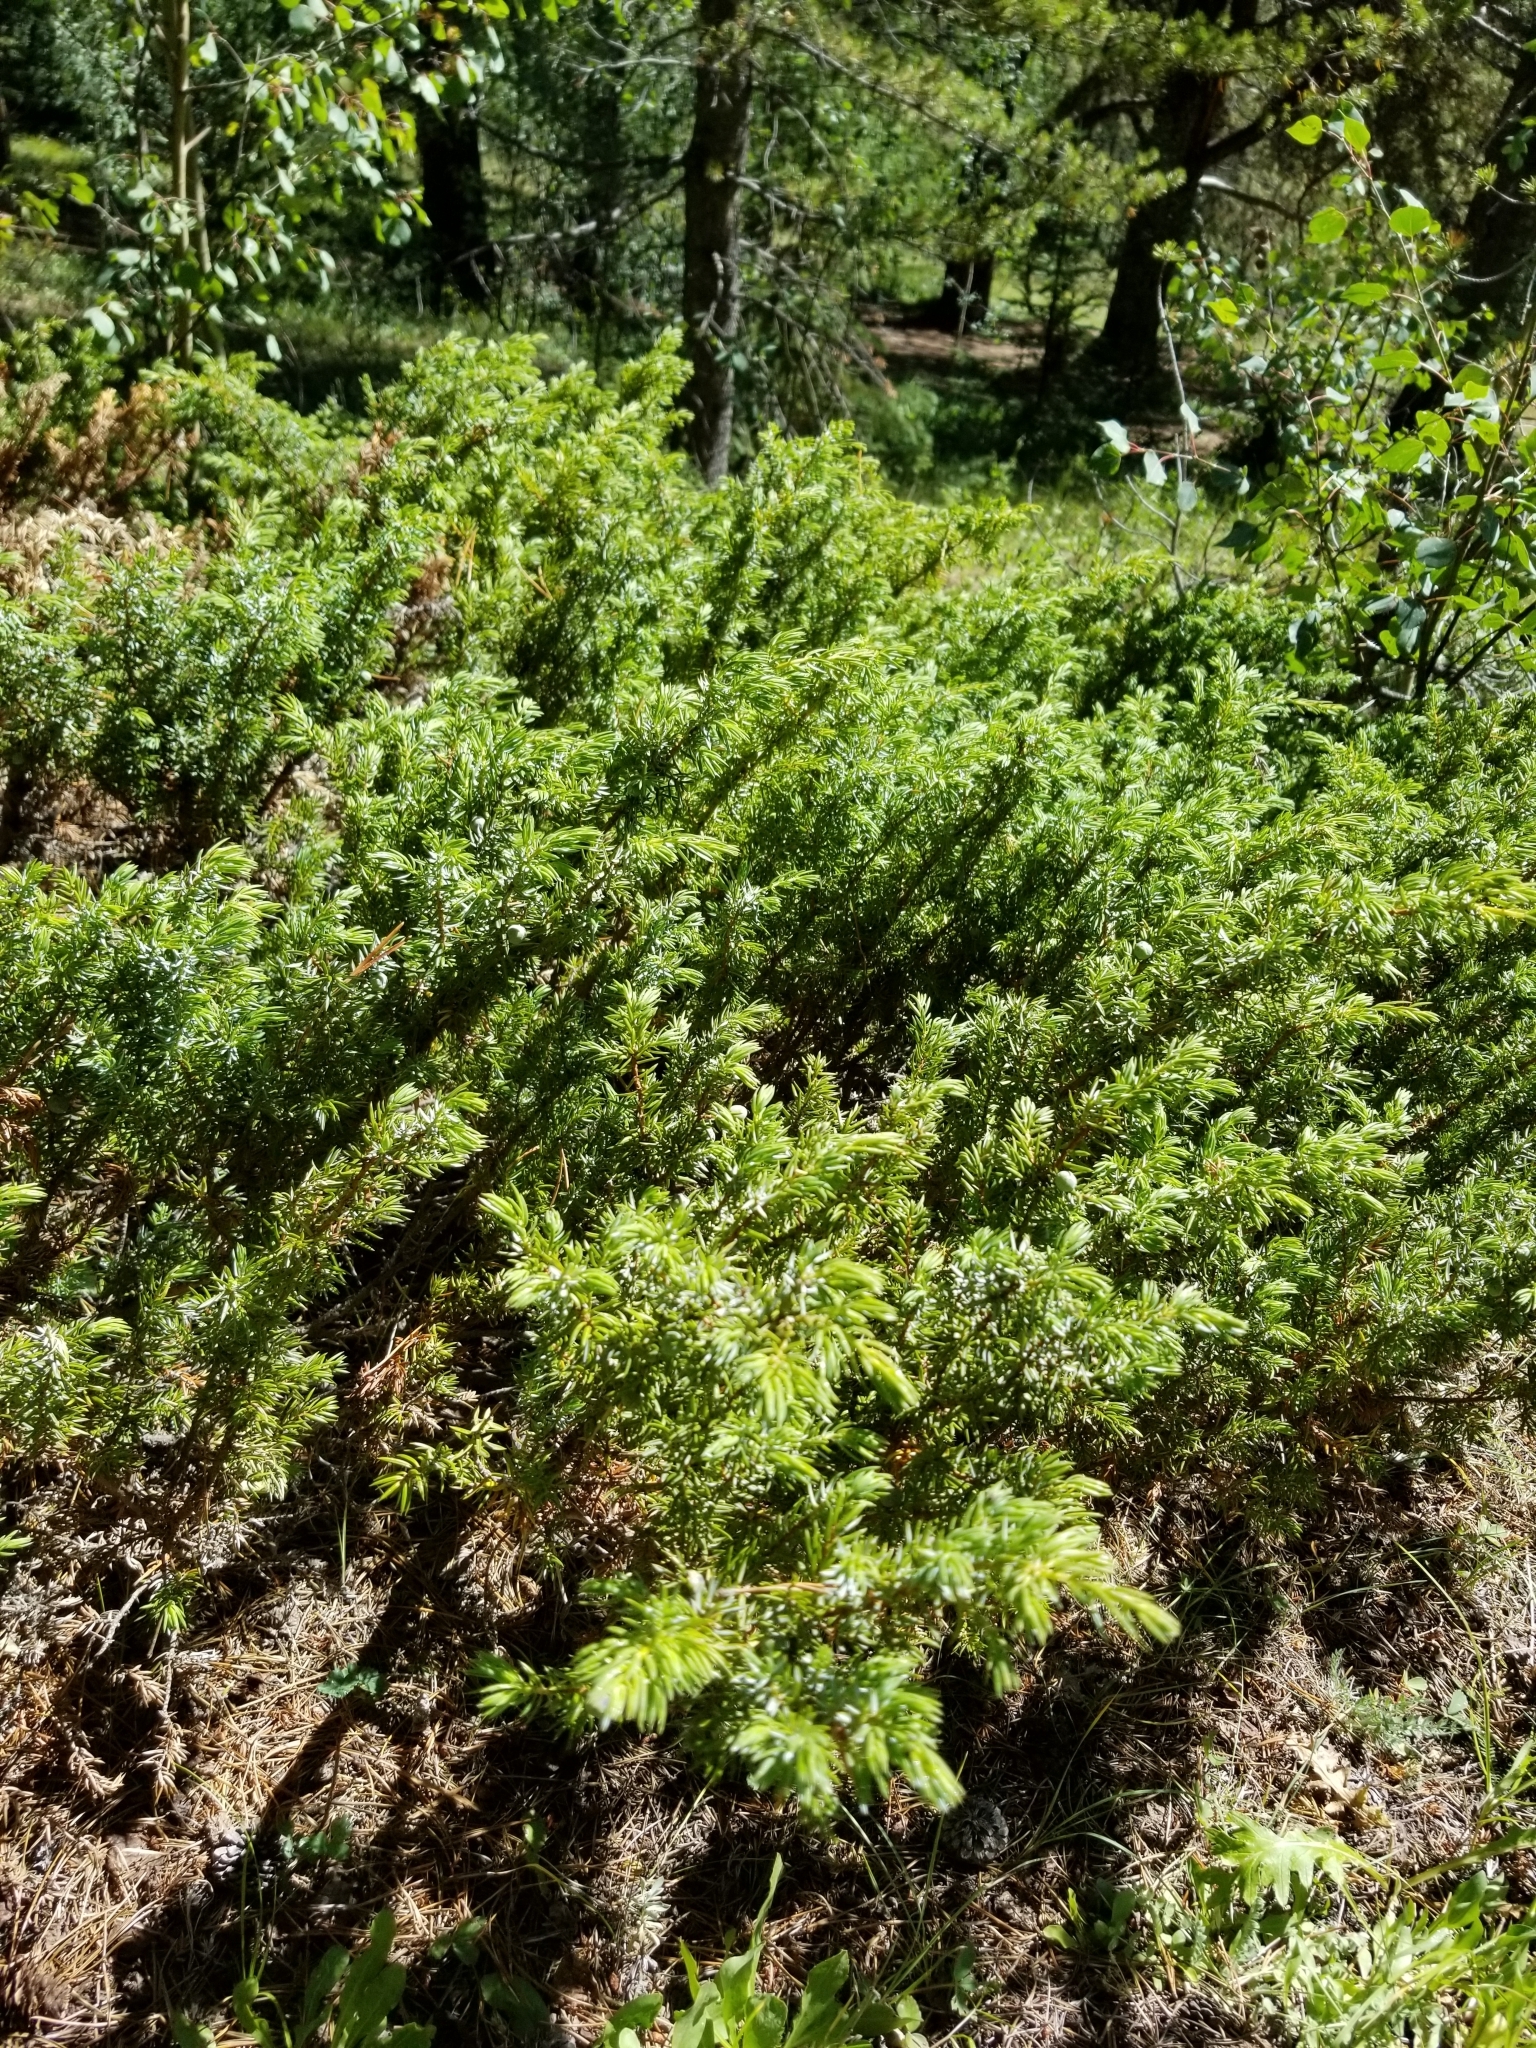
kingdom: Plantae
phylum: Tracheophyta
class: Pinopsida
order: Pinales
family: Cupressaceae
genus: Juniperus
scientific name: Juniperus communis
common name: Common juniper
